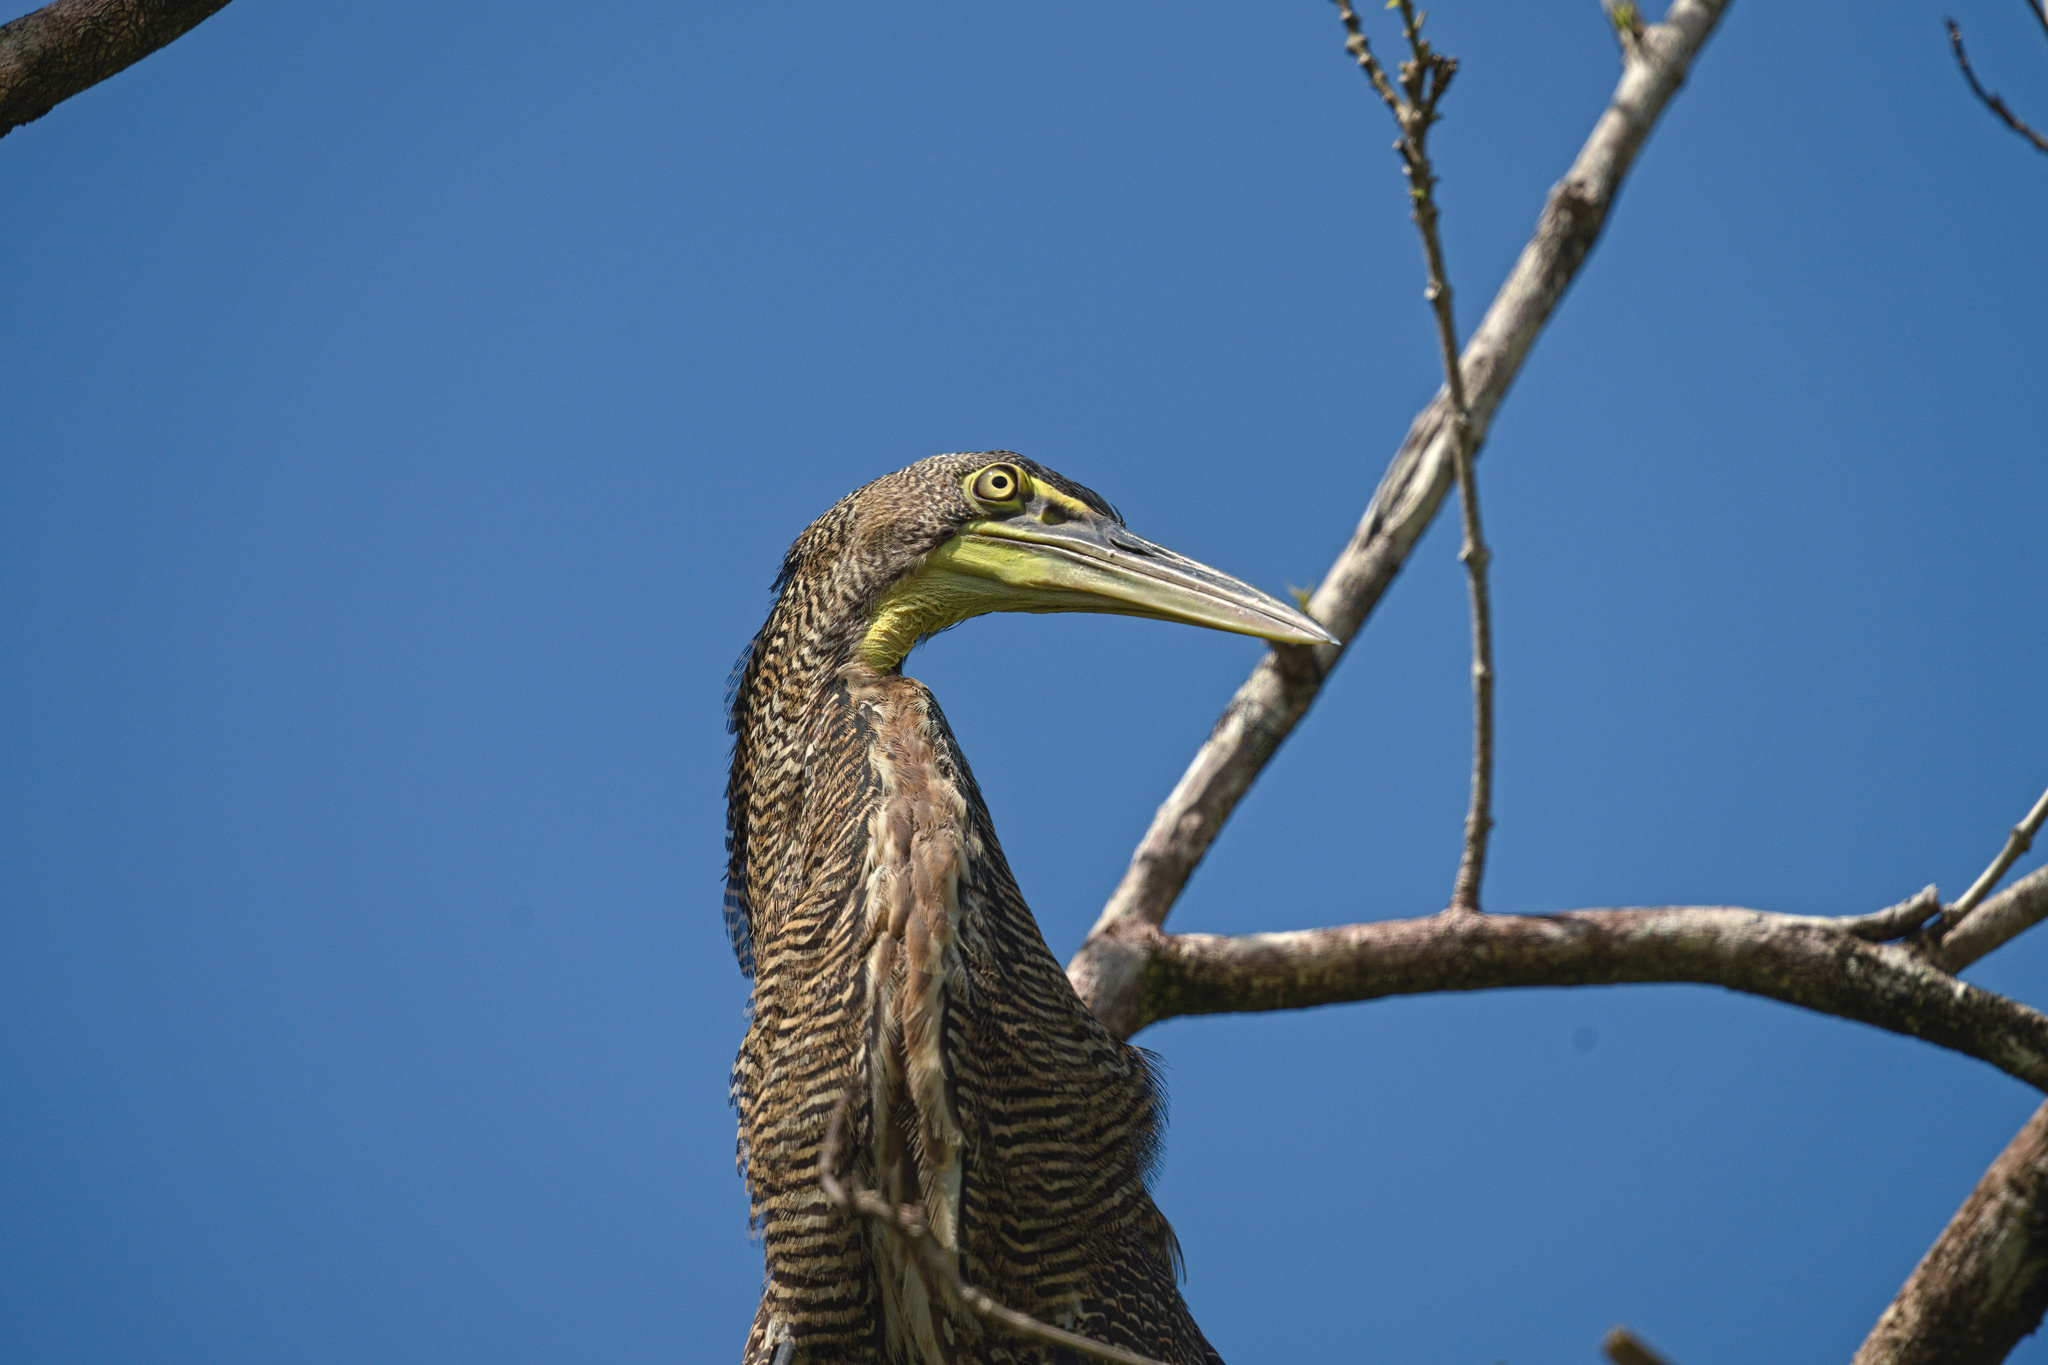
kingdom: Animalia
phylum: Chordata
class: Aves
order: Pelecaniformes
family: Ardeidae
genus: Tigrisoma
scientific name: Tigrisoma mexicanum
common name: Bare-throated tiger-heron
